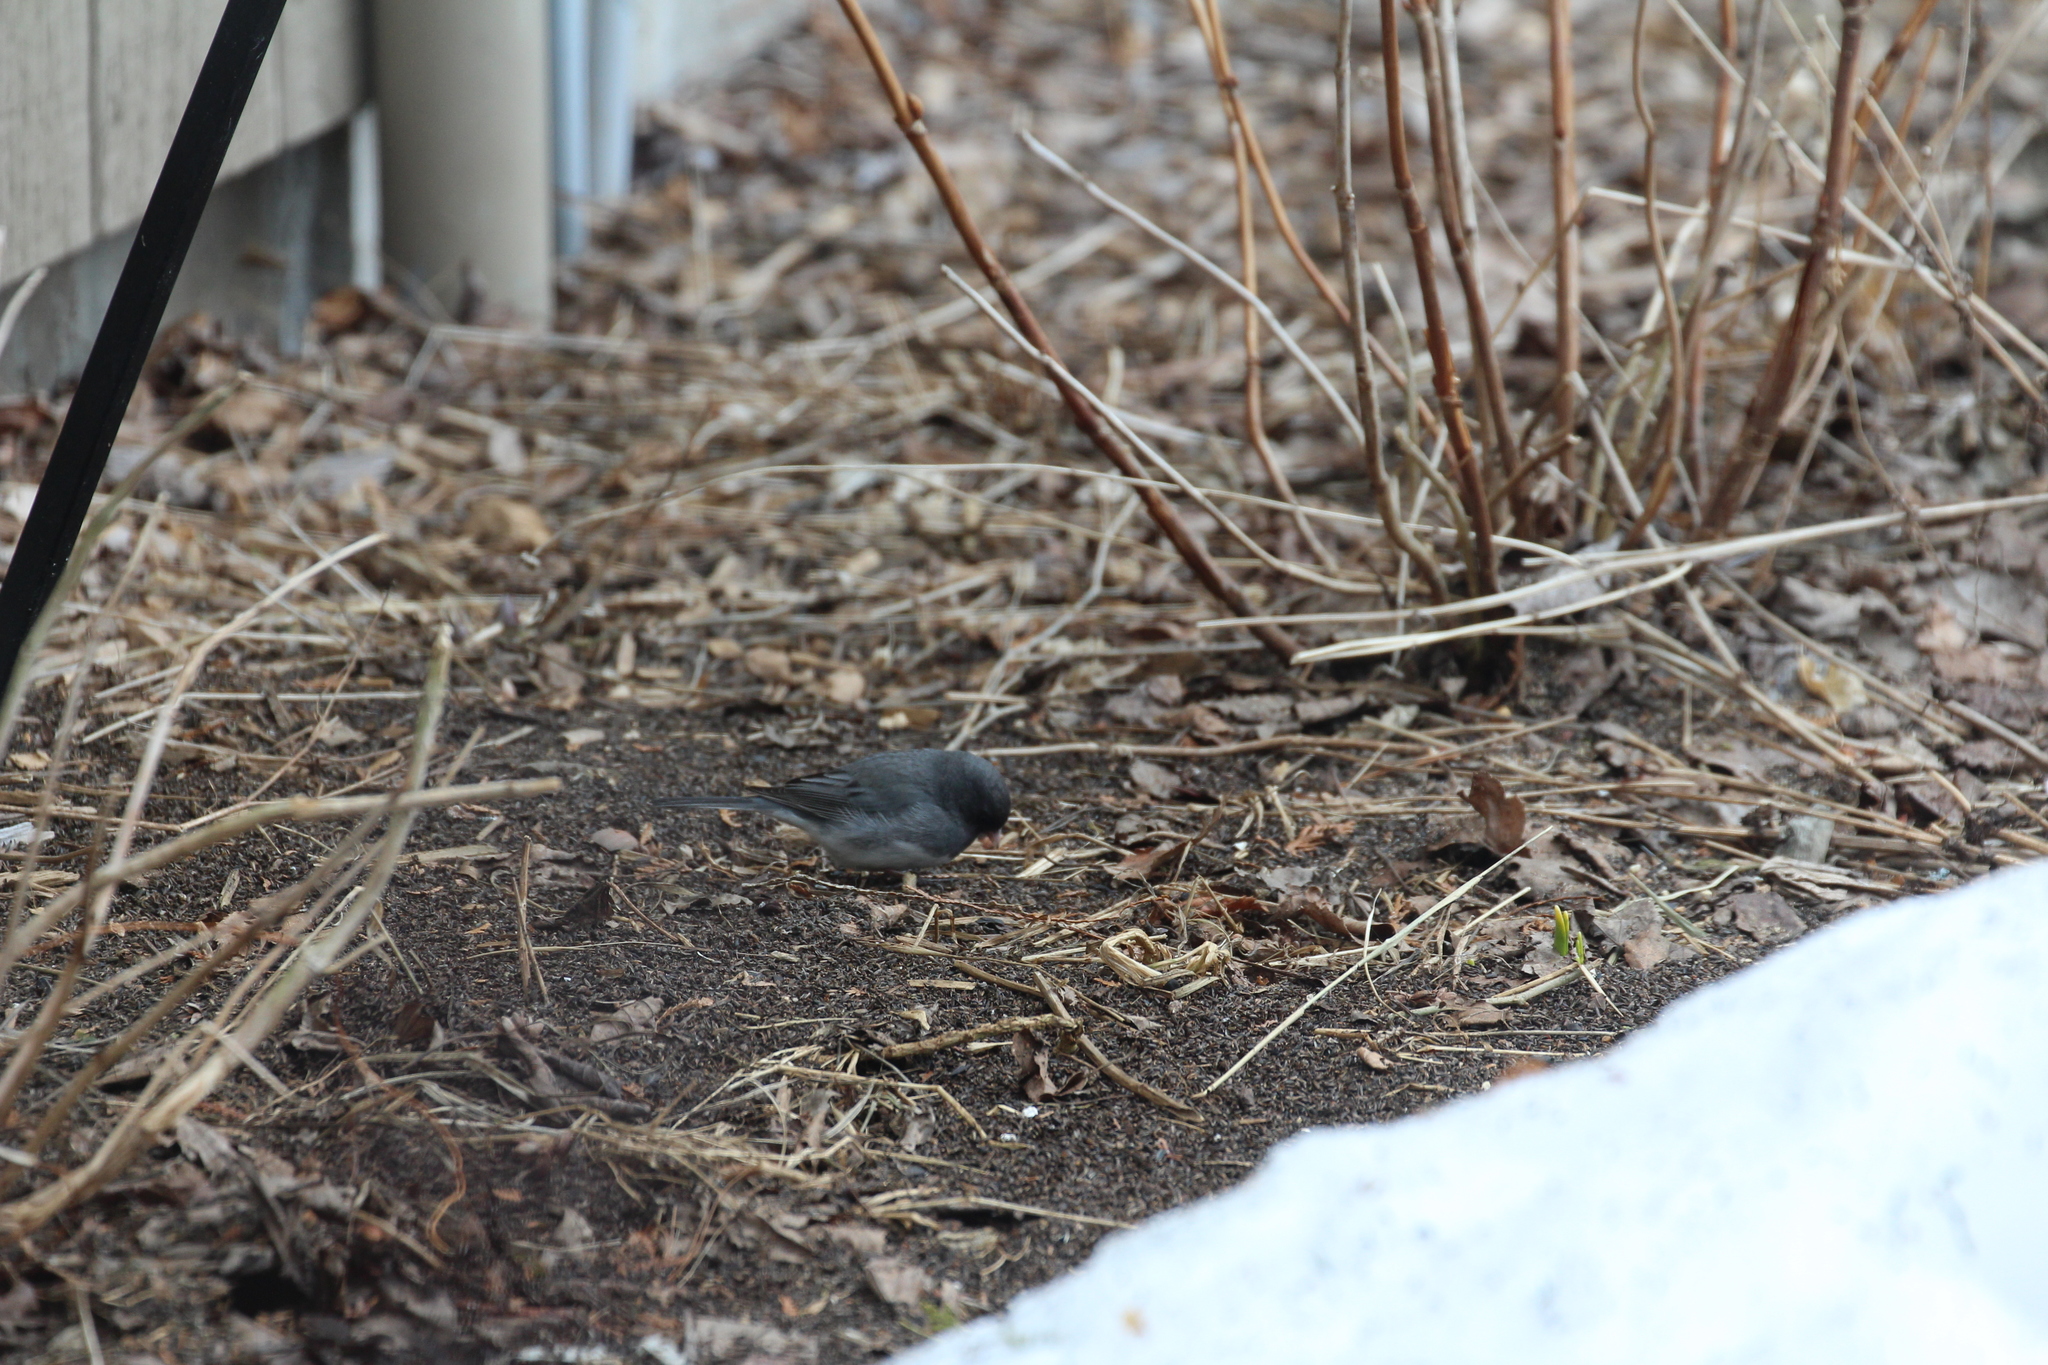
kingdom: Animalia
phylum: Chordata
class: Aves
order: Passeriformes
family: Passerellidae
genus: Junco
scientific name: Junco hyemalis
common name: Dark-eyed junco
